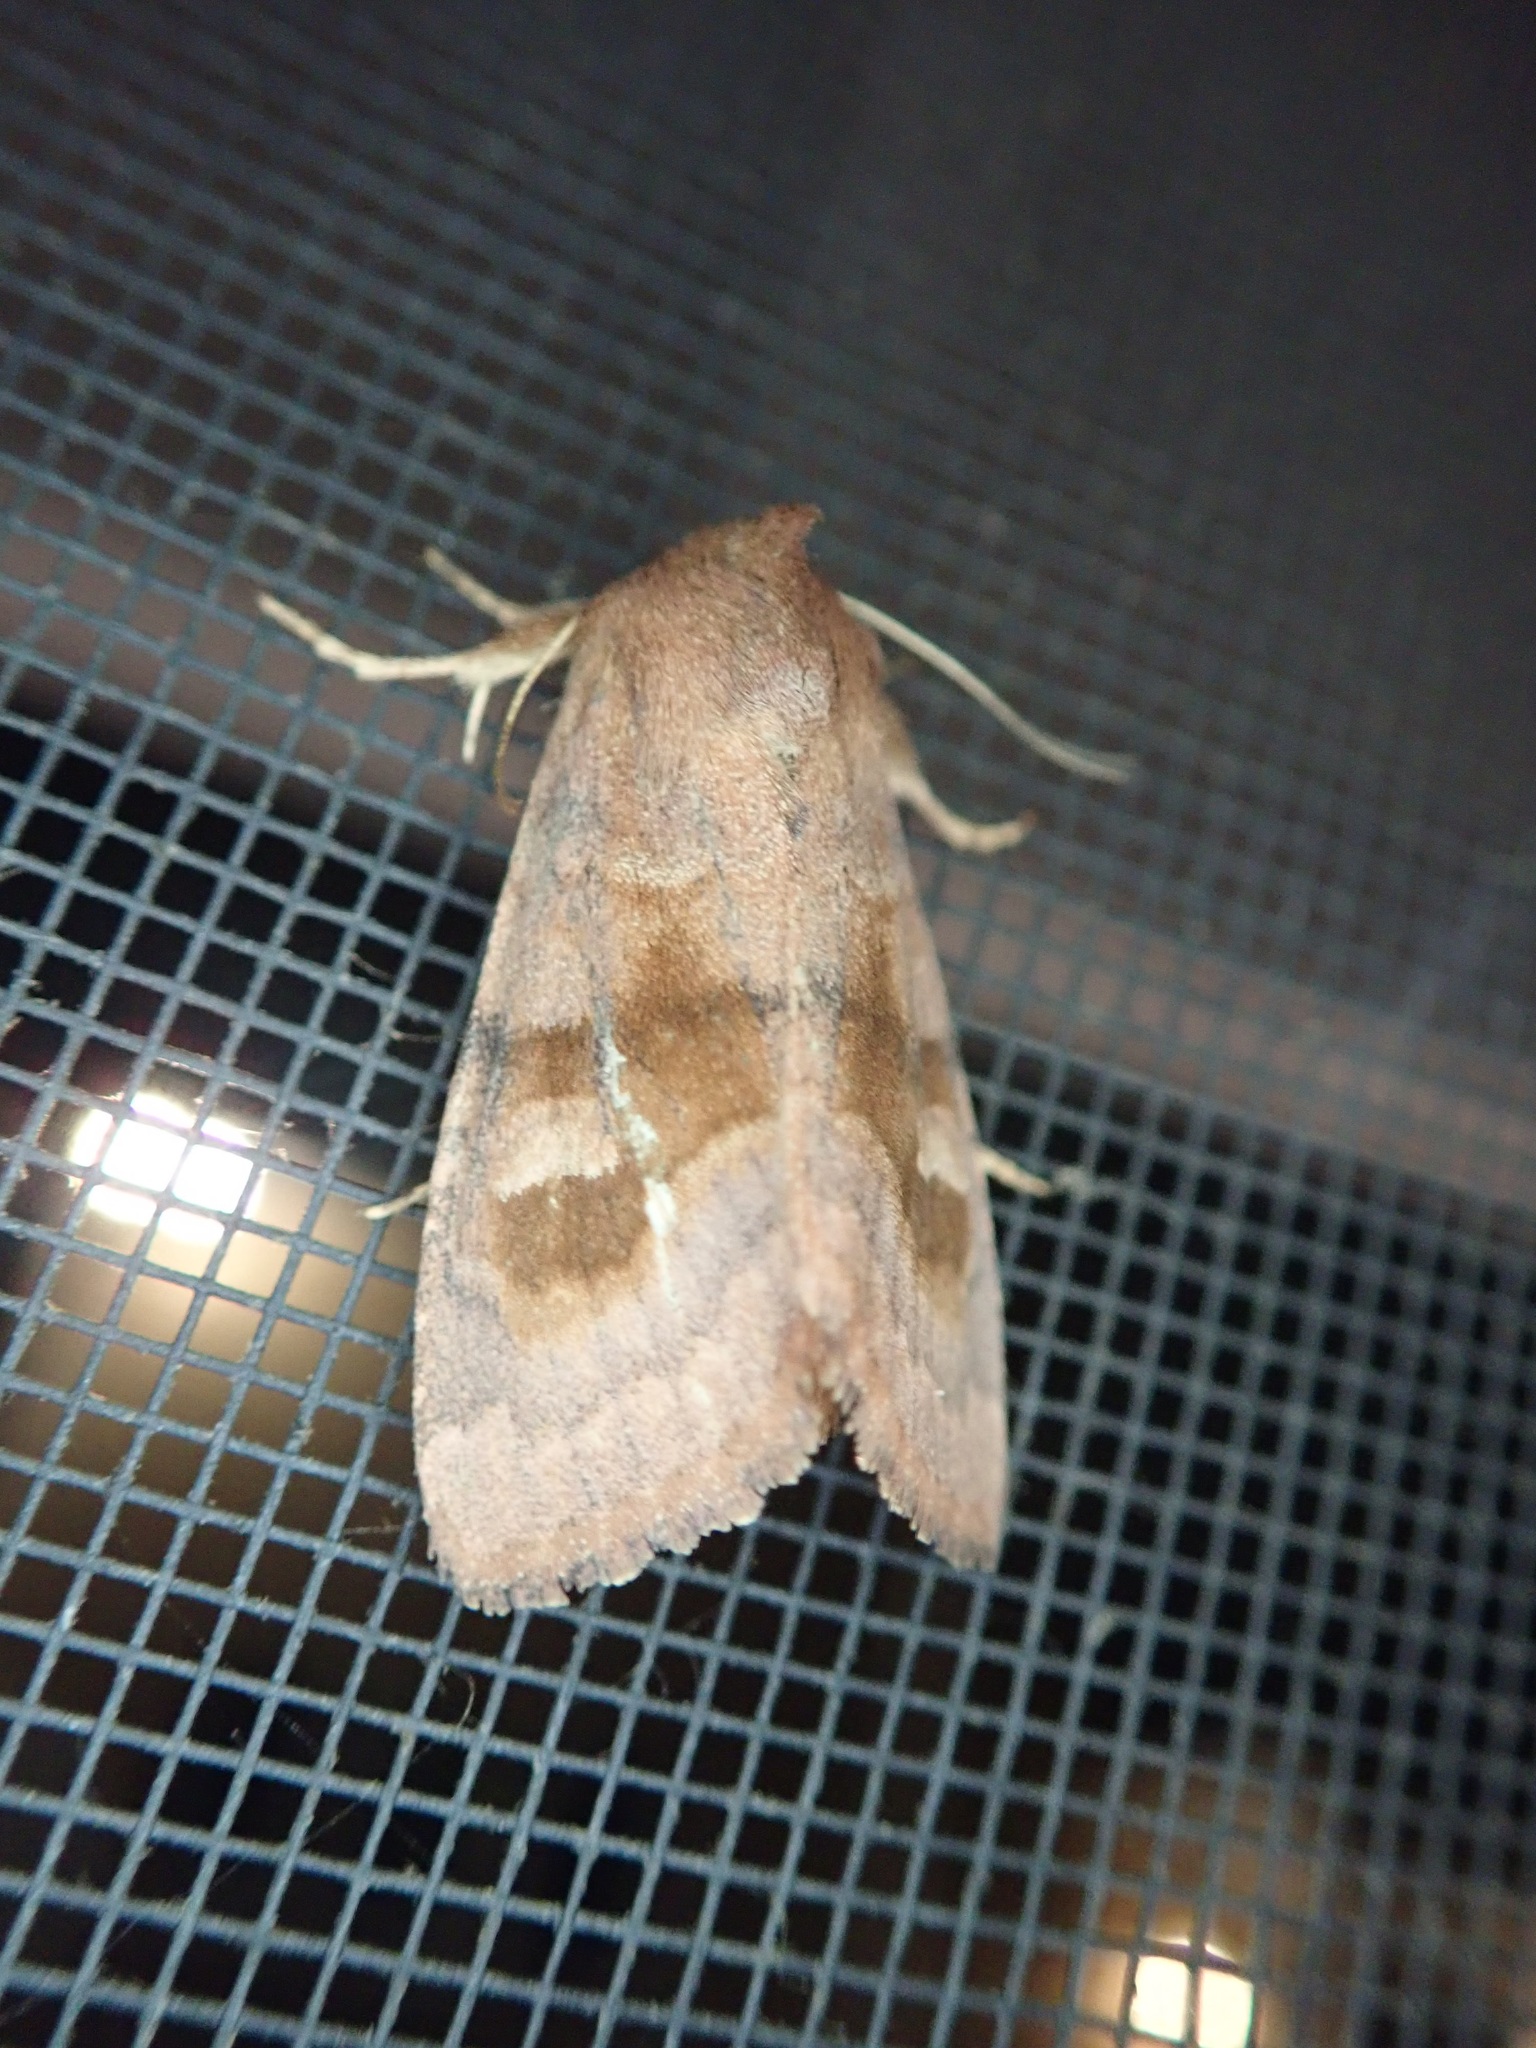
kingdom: Animalia
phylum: Arthropoda
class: Insecta
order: Lepidoptera
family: Noctuidae
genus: Nephelodes
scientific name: Nephelodes minians
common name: Bronzed cutworm
